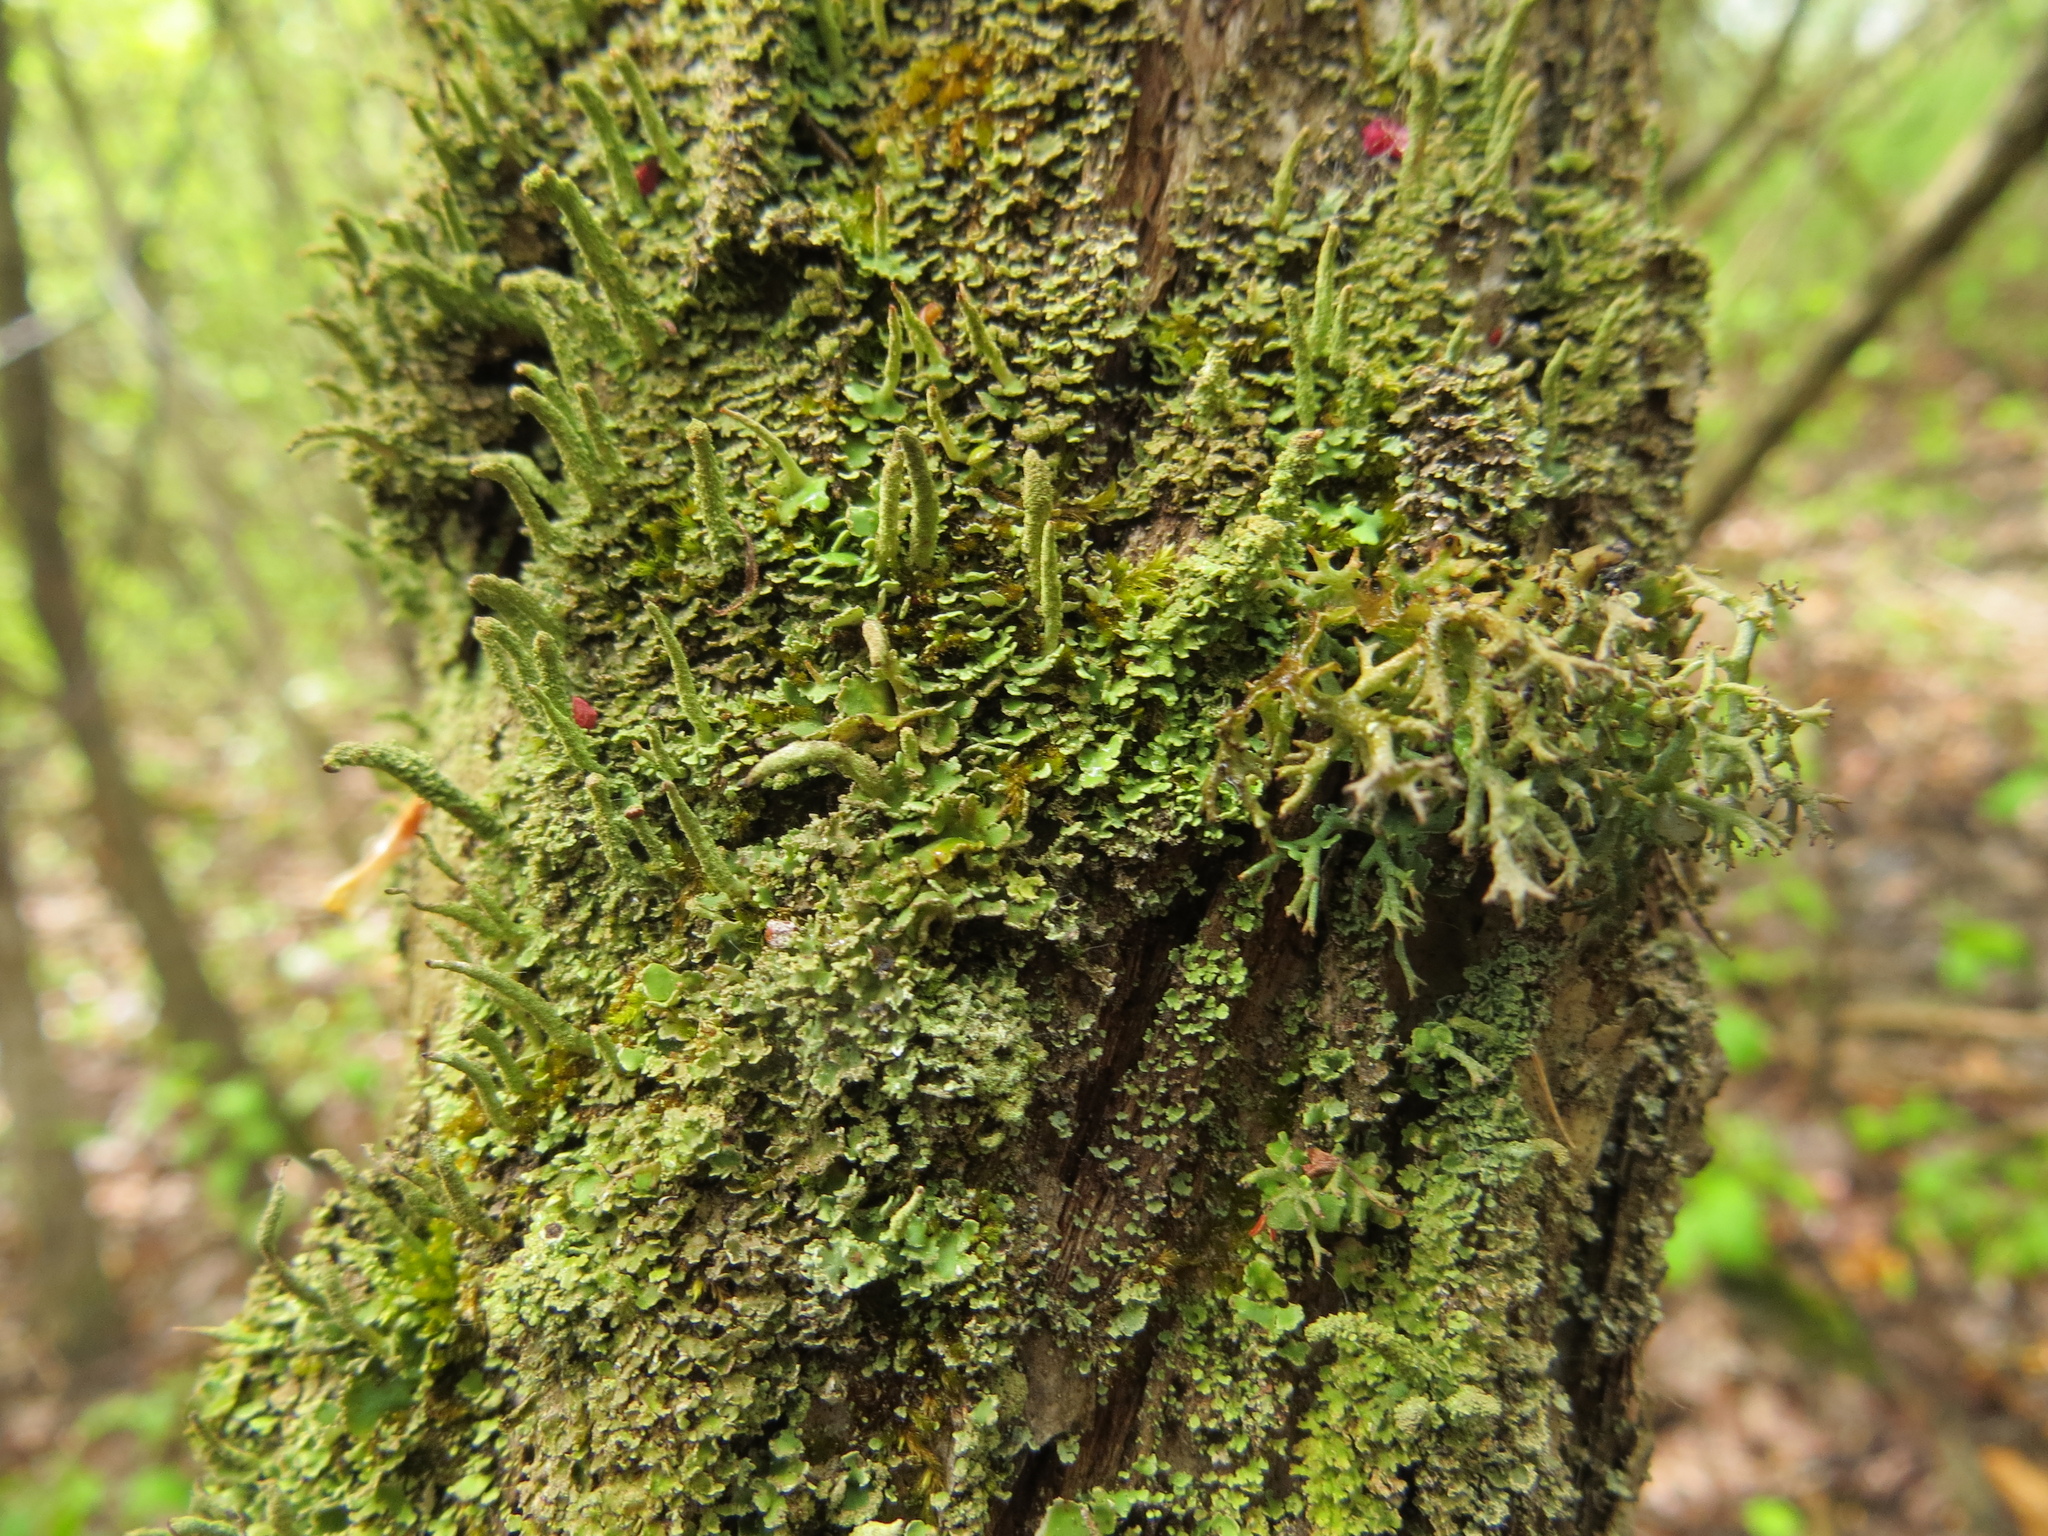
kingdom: Fungi
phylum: Ascomycota
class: Lecanoromycetes
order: Lecanorales
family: Cladoniaceae
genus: Cladonia
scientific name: Cladonia coniocraea
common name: Common powderhorn
